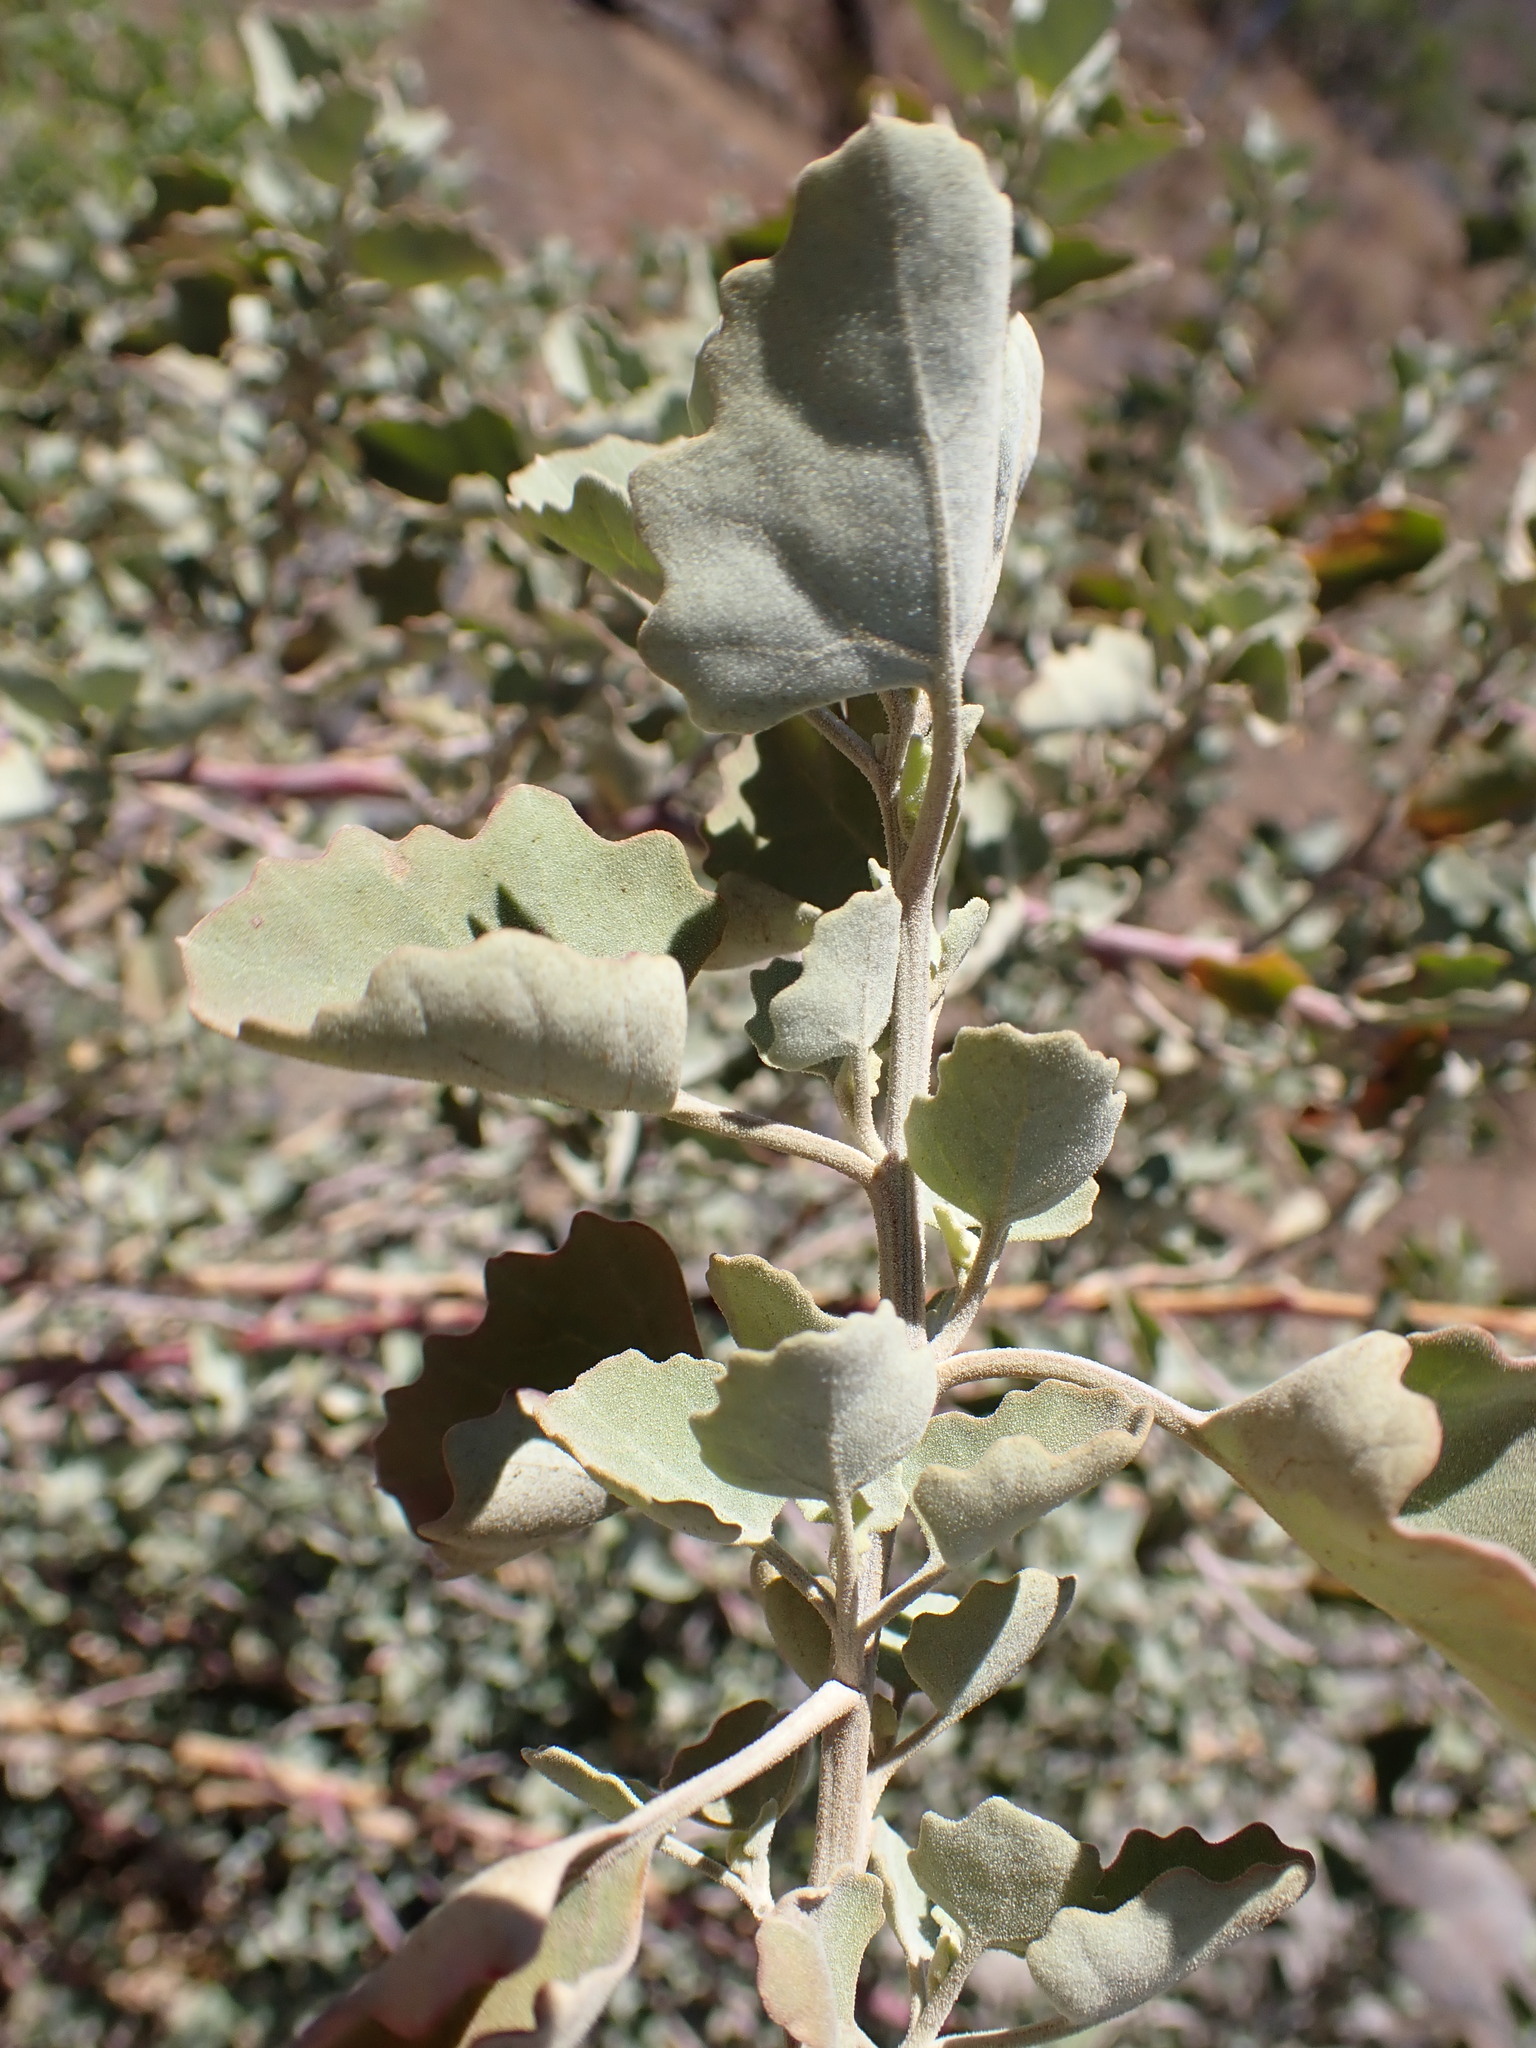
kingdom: Plantae
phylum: Tracheophyta
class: Magnoliopsida
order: Caryophyllales
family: Amaranthaceae
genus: Chenopodium
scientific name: Chenopodium oahuense
